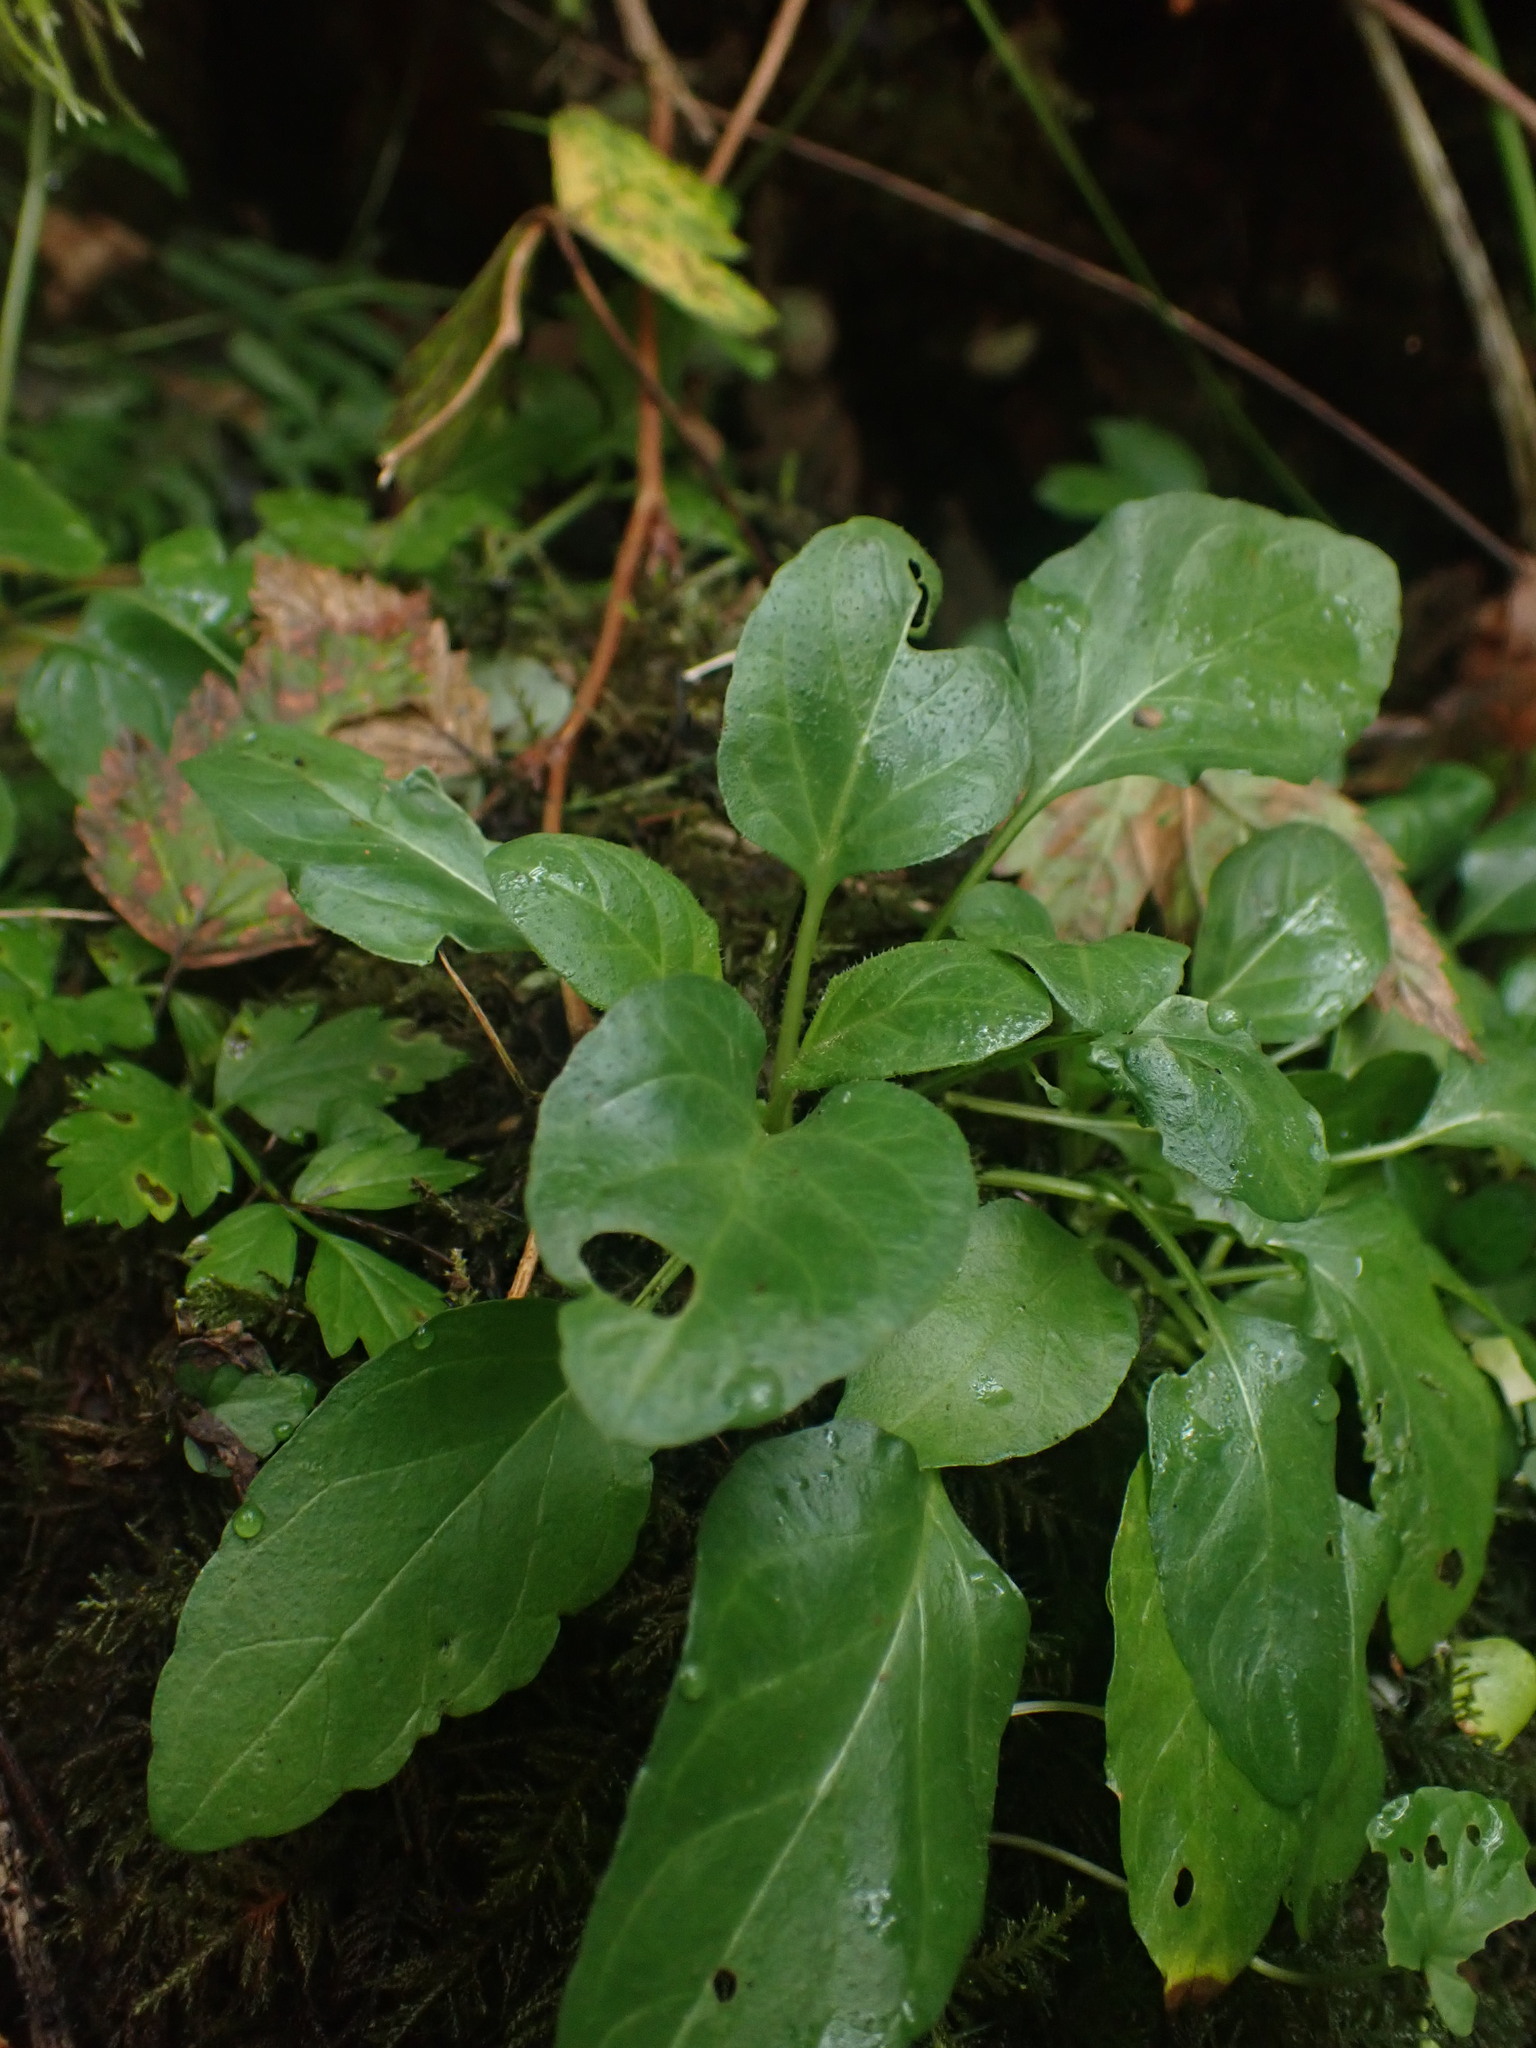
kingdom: Plantae
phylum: Tracheophyta
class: Magnoliopsida
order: Lamiales
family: Lamiaceae
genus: Prunella
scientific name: Prunella vulgaris
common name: Heal-all
